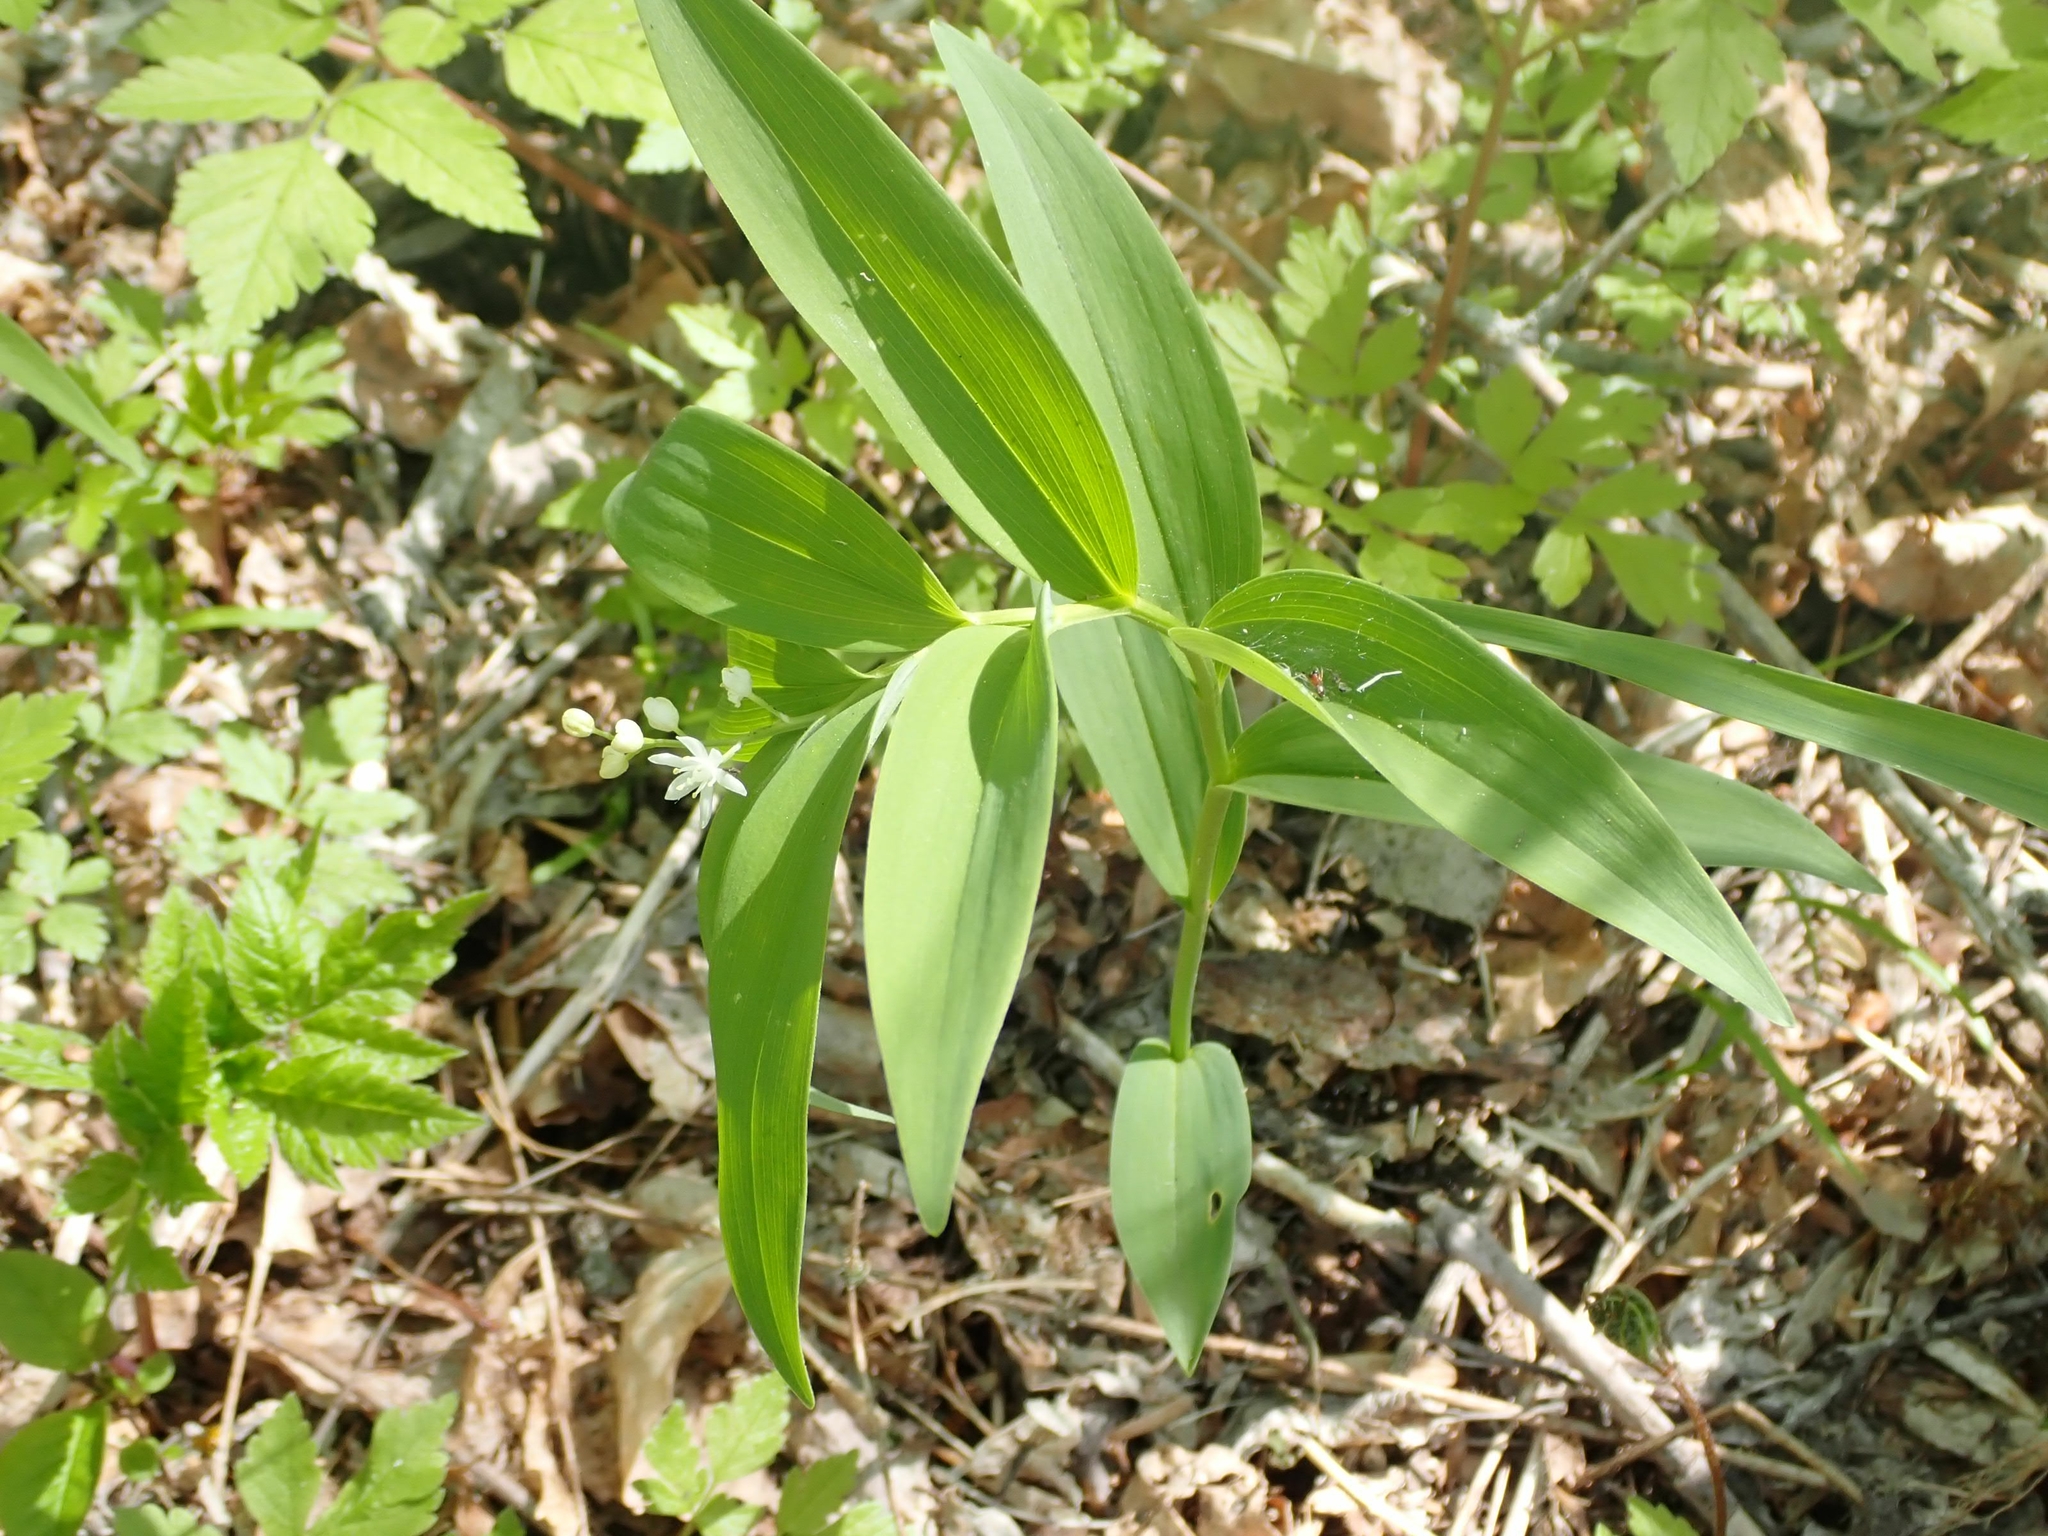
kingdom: Plantae
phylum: Tracheophyta
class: Liliopsida
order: Asparagales
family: Asparagaceae
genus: Maianthemum
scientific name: Maianthemum stellatum
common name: Little false solomon's seal
